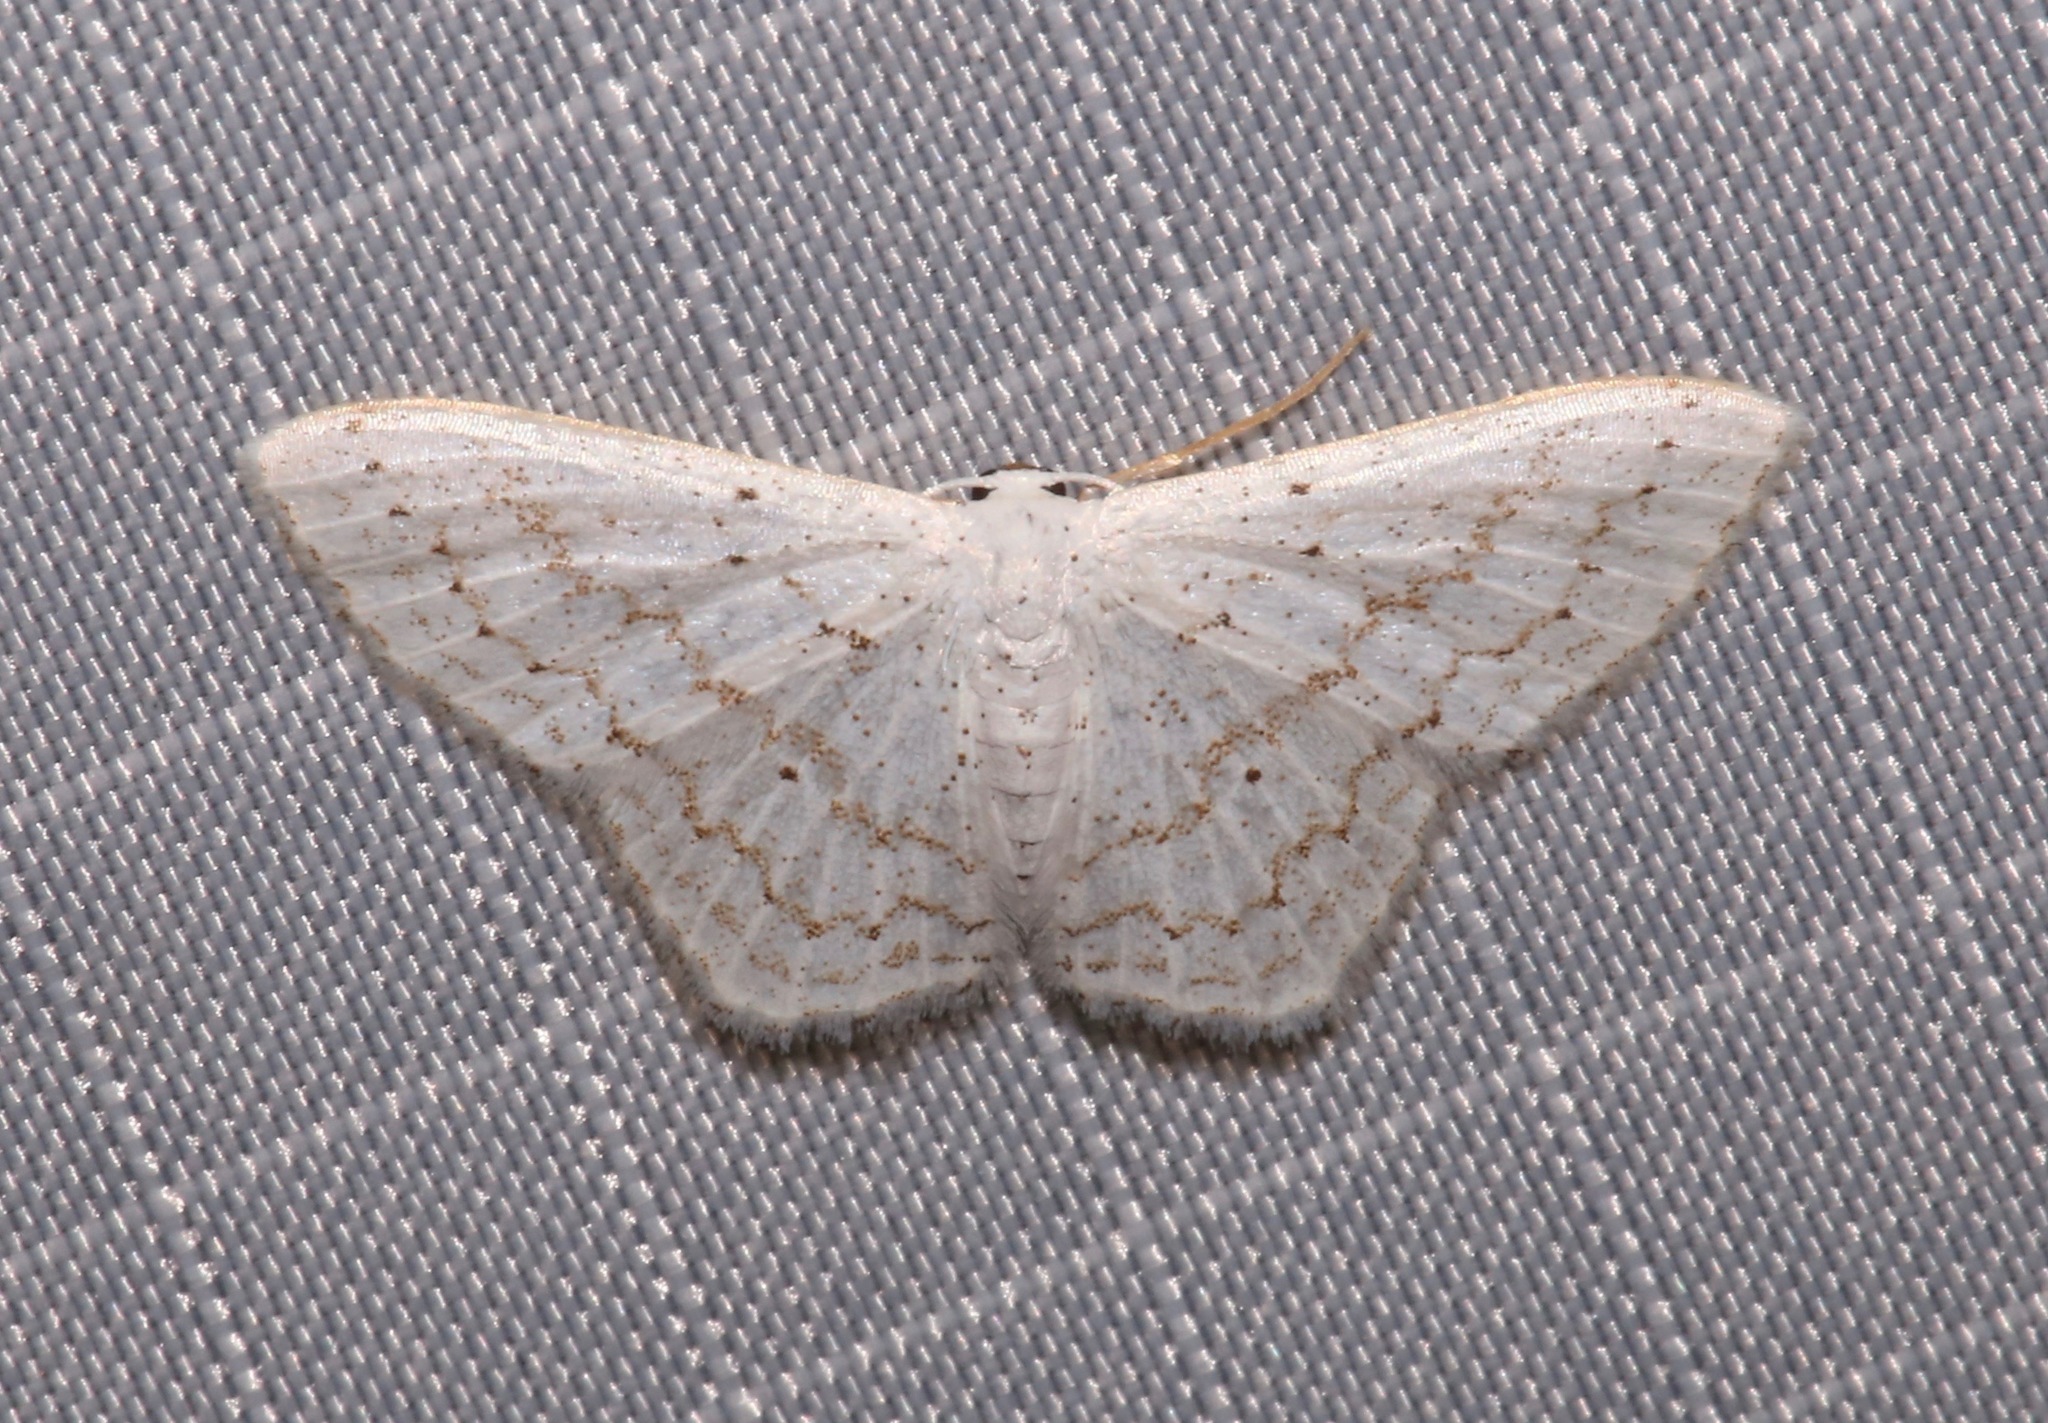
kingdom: Animalia
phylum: Arthropoda
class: Insecta
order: Lepidoptera
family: Geometridae
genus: Idaea
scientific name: Idaea tacturata
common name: Dot-lined wave
